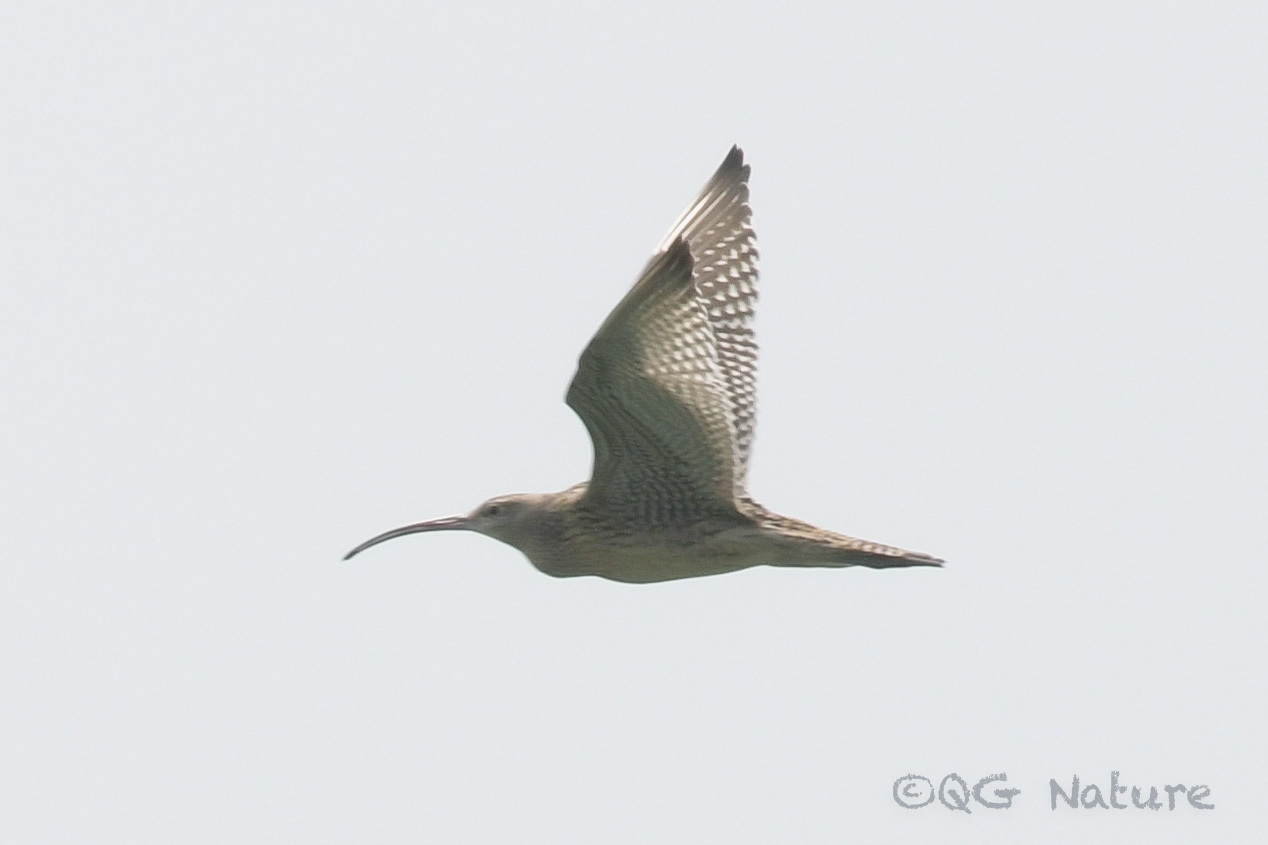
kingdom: Animalia
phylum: Chordata
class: Aves
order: Charadriiformes
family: Scolopacidae
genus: Numenius
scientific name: Numenius madagascariensis
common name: Far eastern curlew
